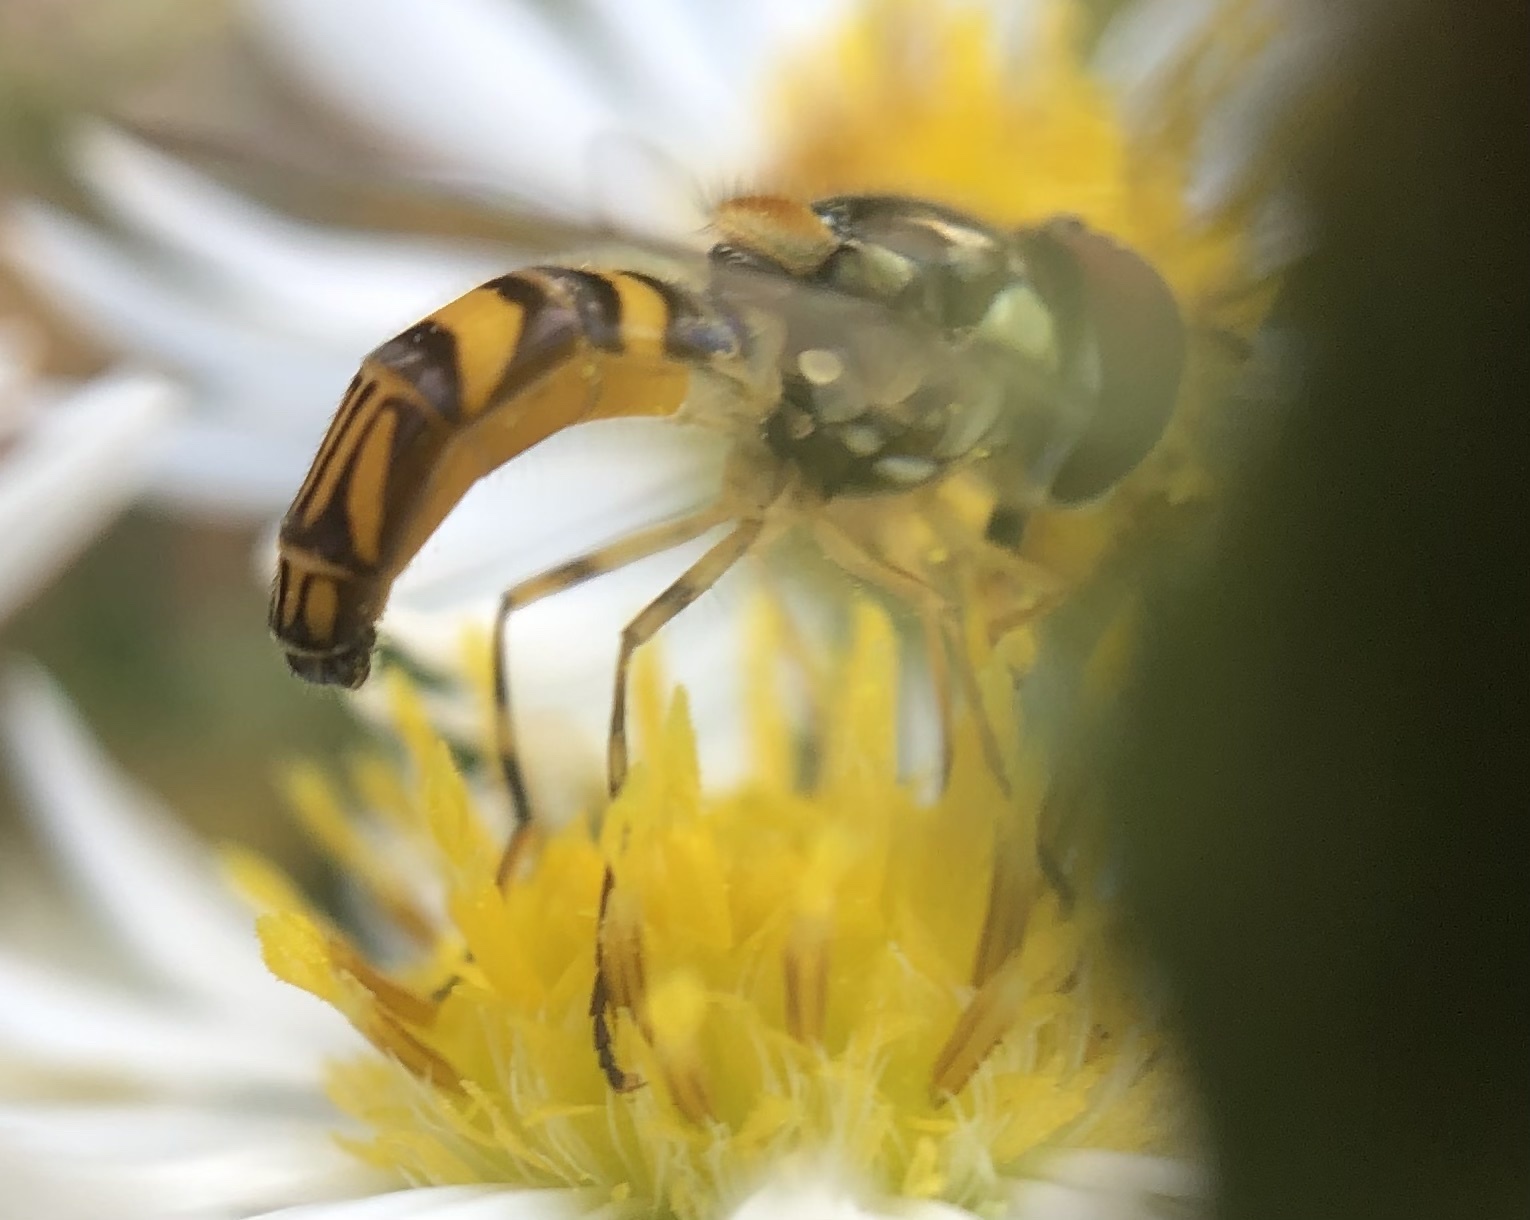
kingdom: Animalia
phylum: Arthropoda
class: Insecta
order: Diptera
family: Syrphidae
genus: Allograpta
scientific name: Allograpta obliqua
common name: Common oblique syrphid
